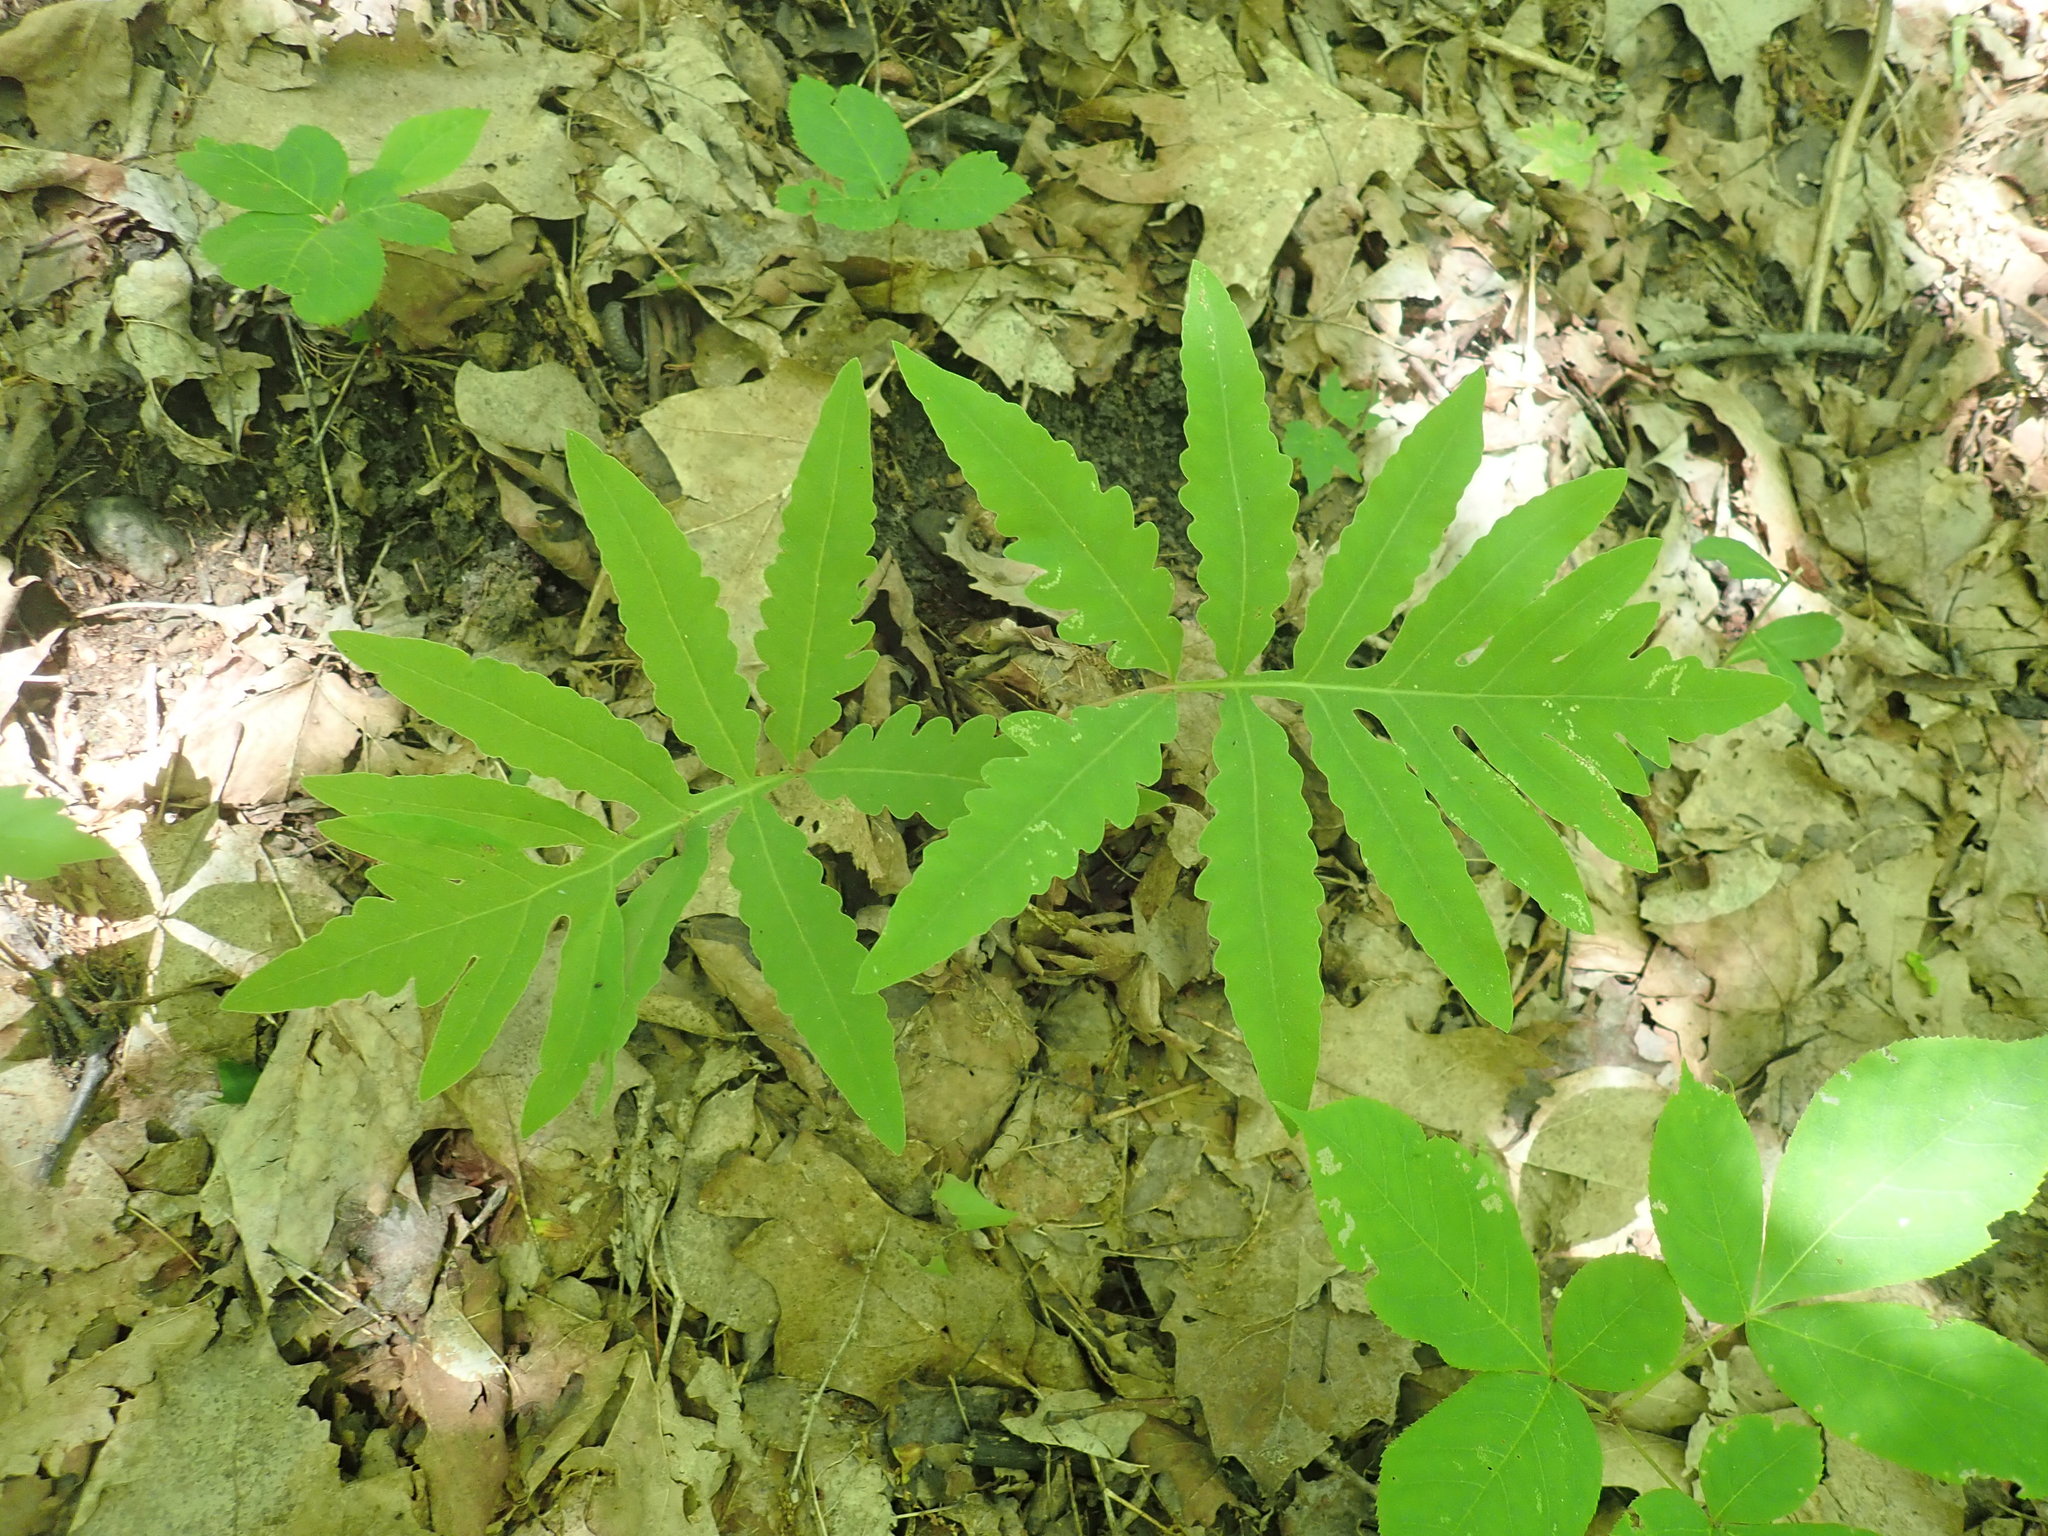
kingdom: Plantae
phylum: Tracheophyta
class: Polypodiopsida
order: Polypodiales
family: Onocleaceae
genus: Onoclea
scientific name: Onoclea sensibilis
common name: Sensitive fern
